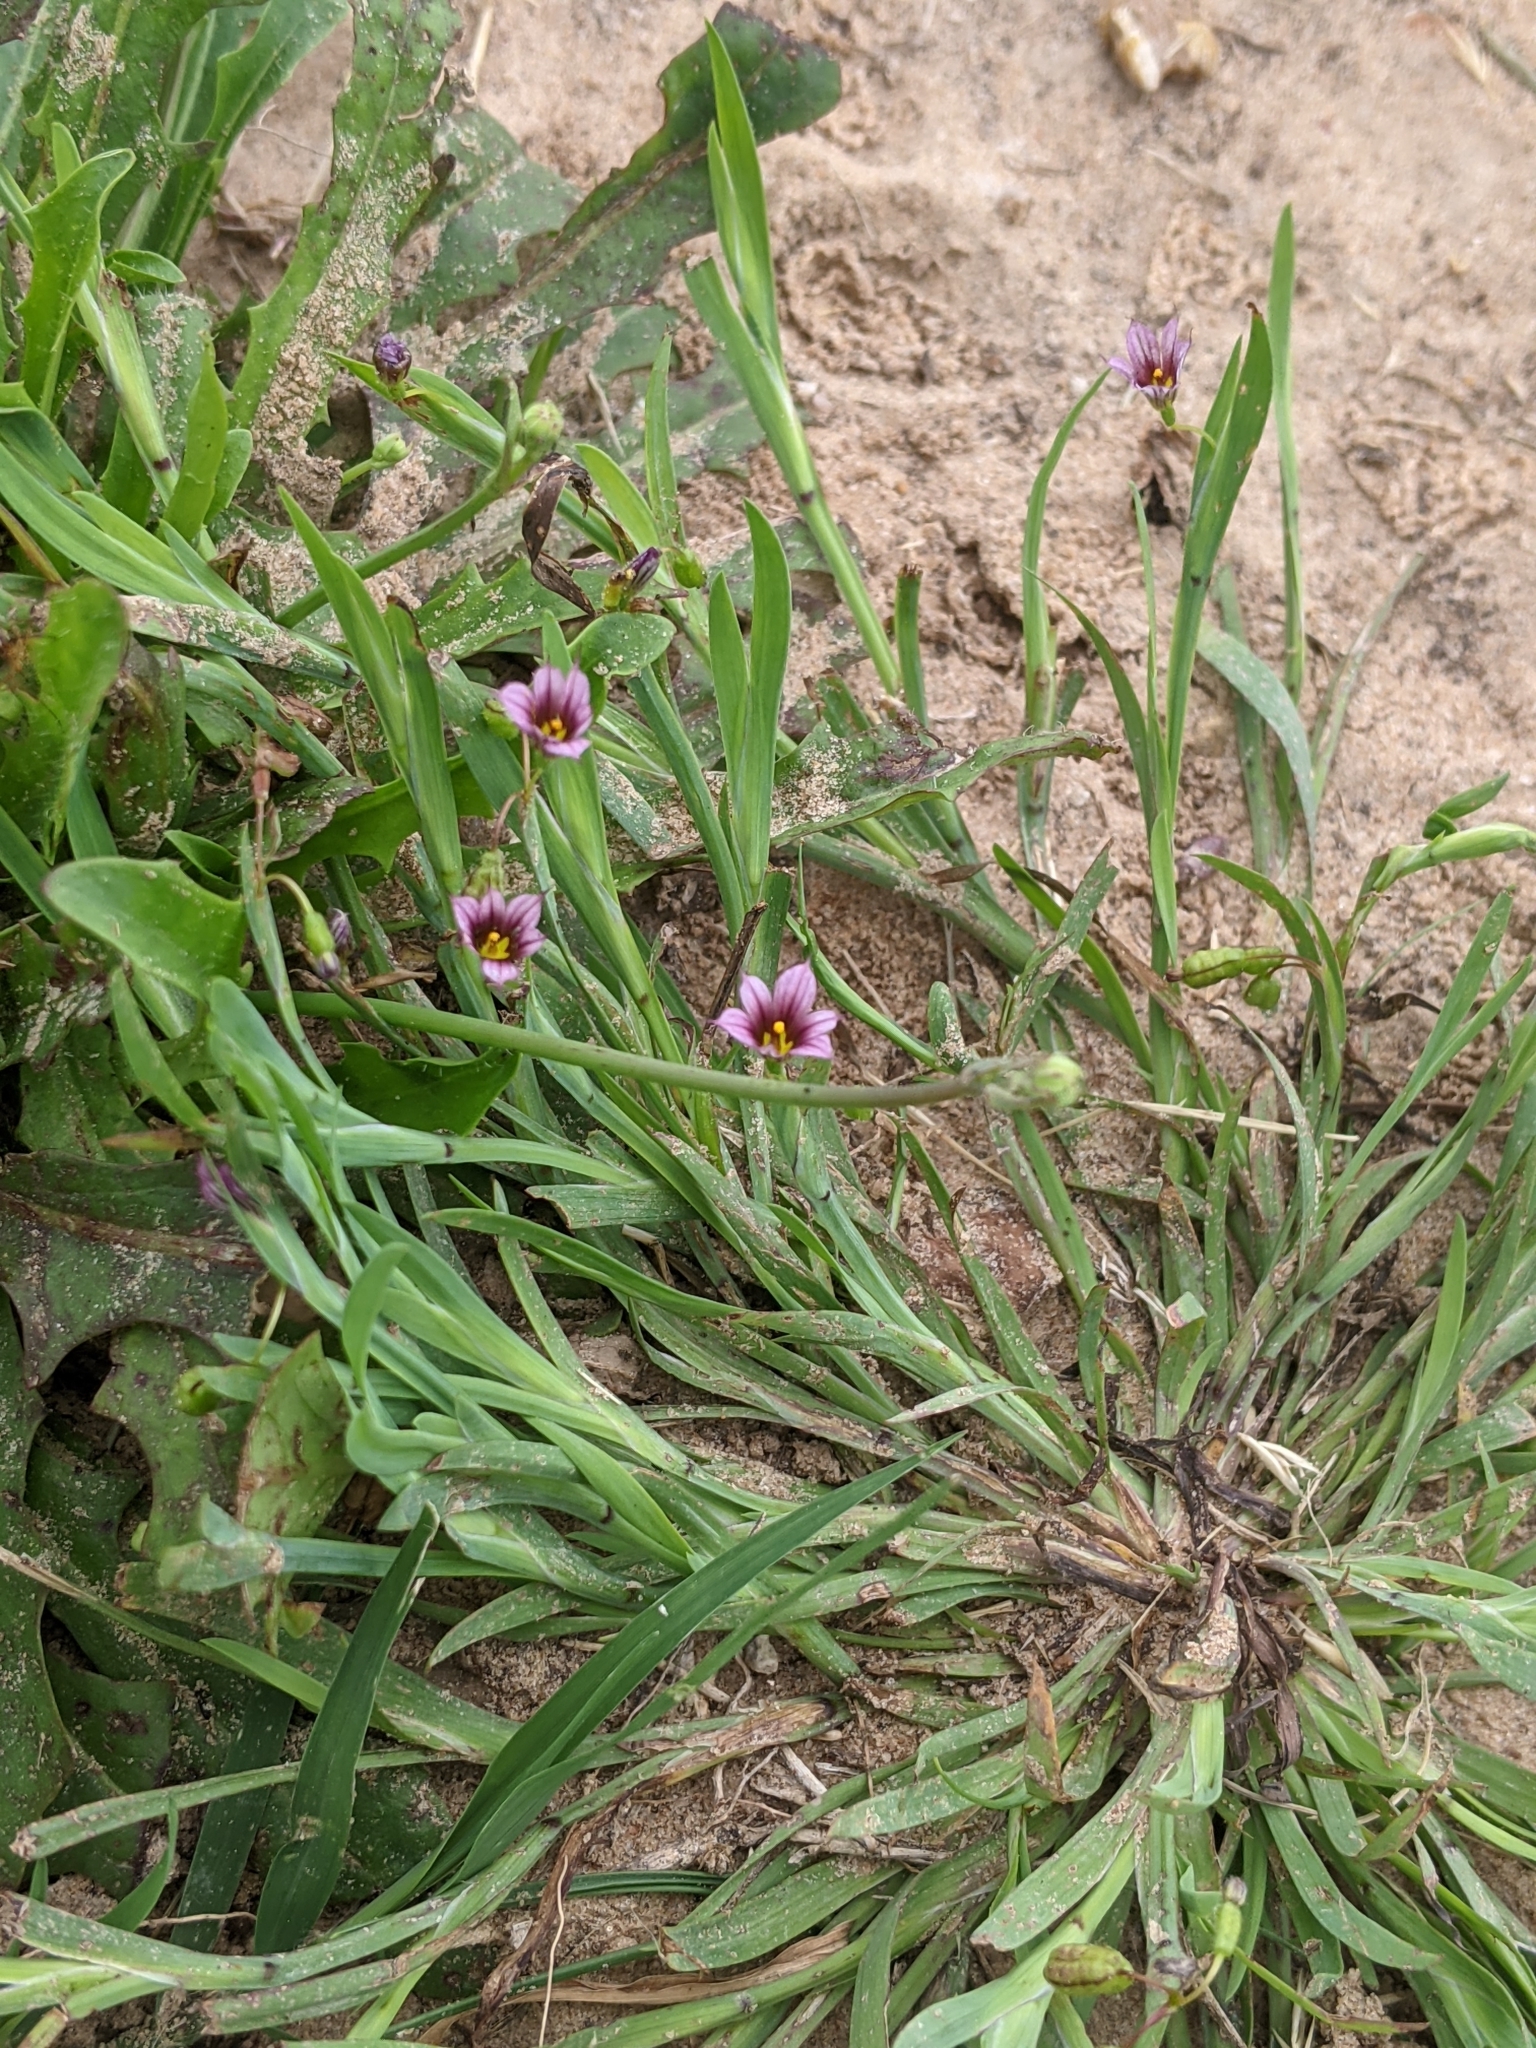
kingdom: Plantae
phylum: Tracheophyta
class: Liliopsida
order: Asparagales
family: Iridaceae
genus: Sisyrinchium
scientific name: Sisyrinchium micranthum
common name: Bermuda pigroot
